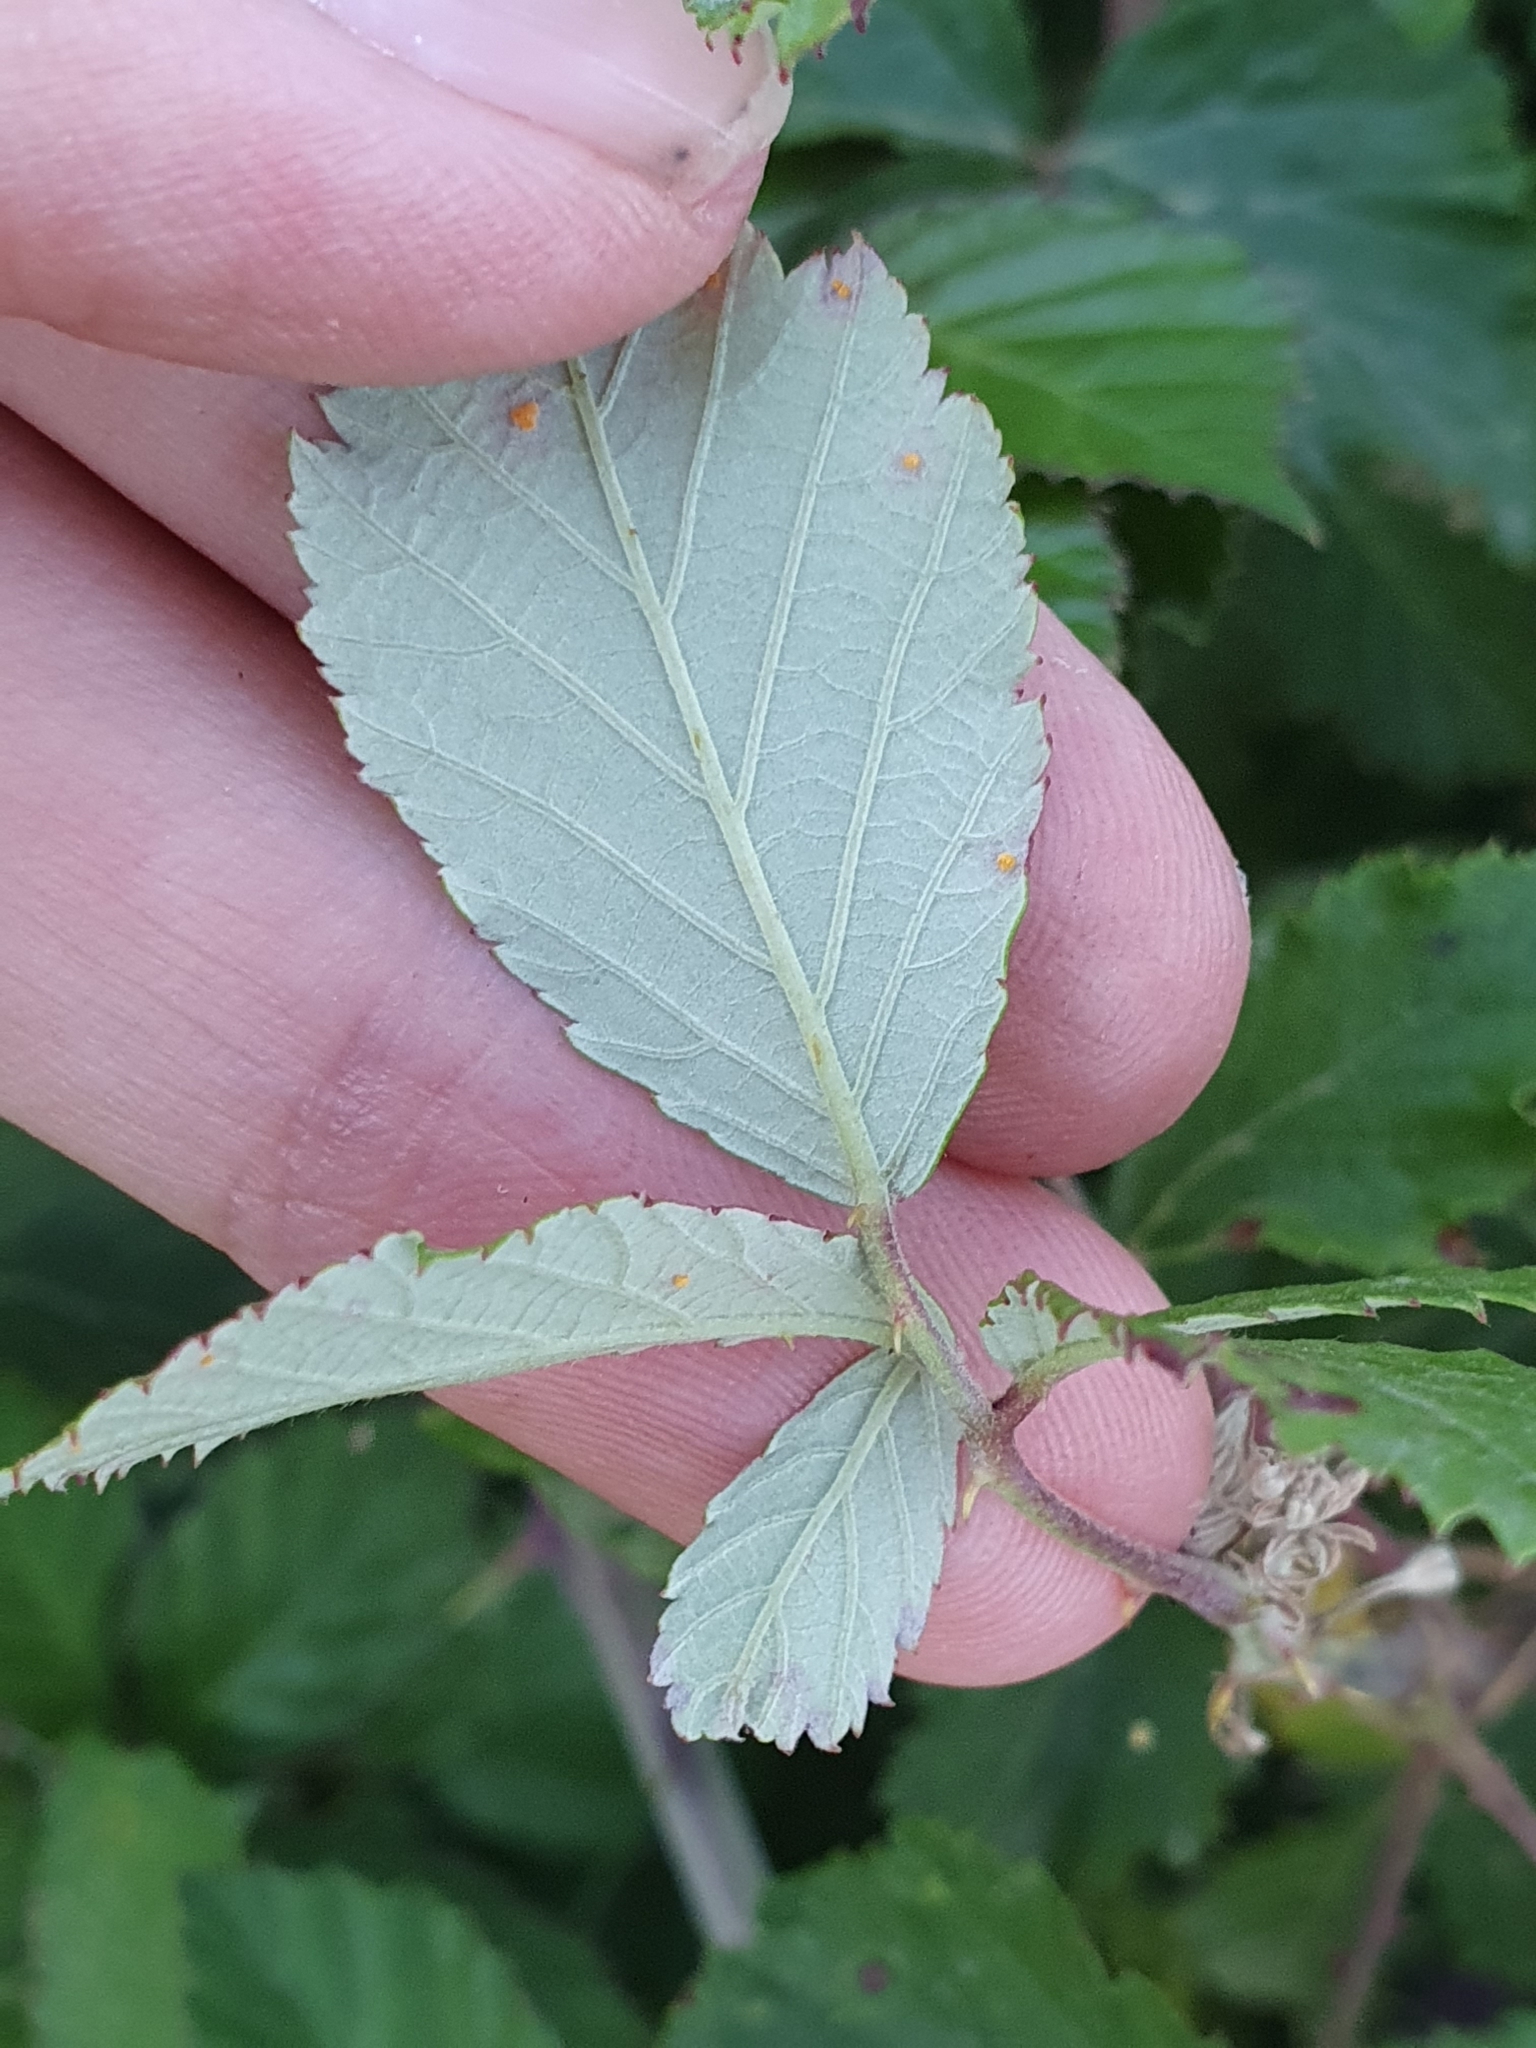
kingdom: Plantae
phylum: Tracheophyta
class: Magnoliopsida
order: Rosales
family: Rosaceae
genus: Rubus
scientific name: Rubus ulmifolius
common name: Elmleaf blackberry
